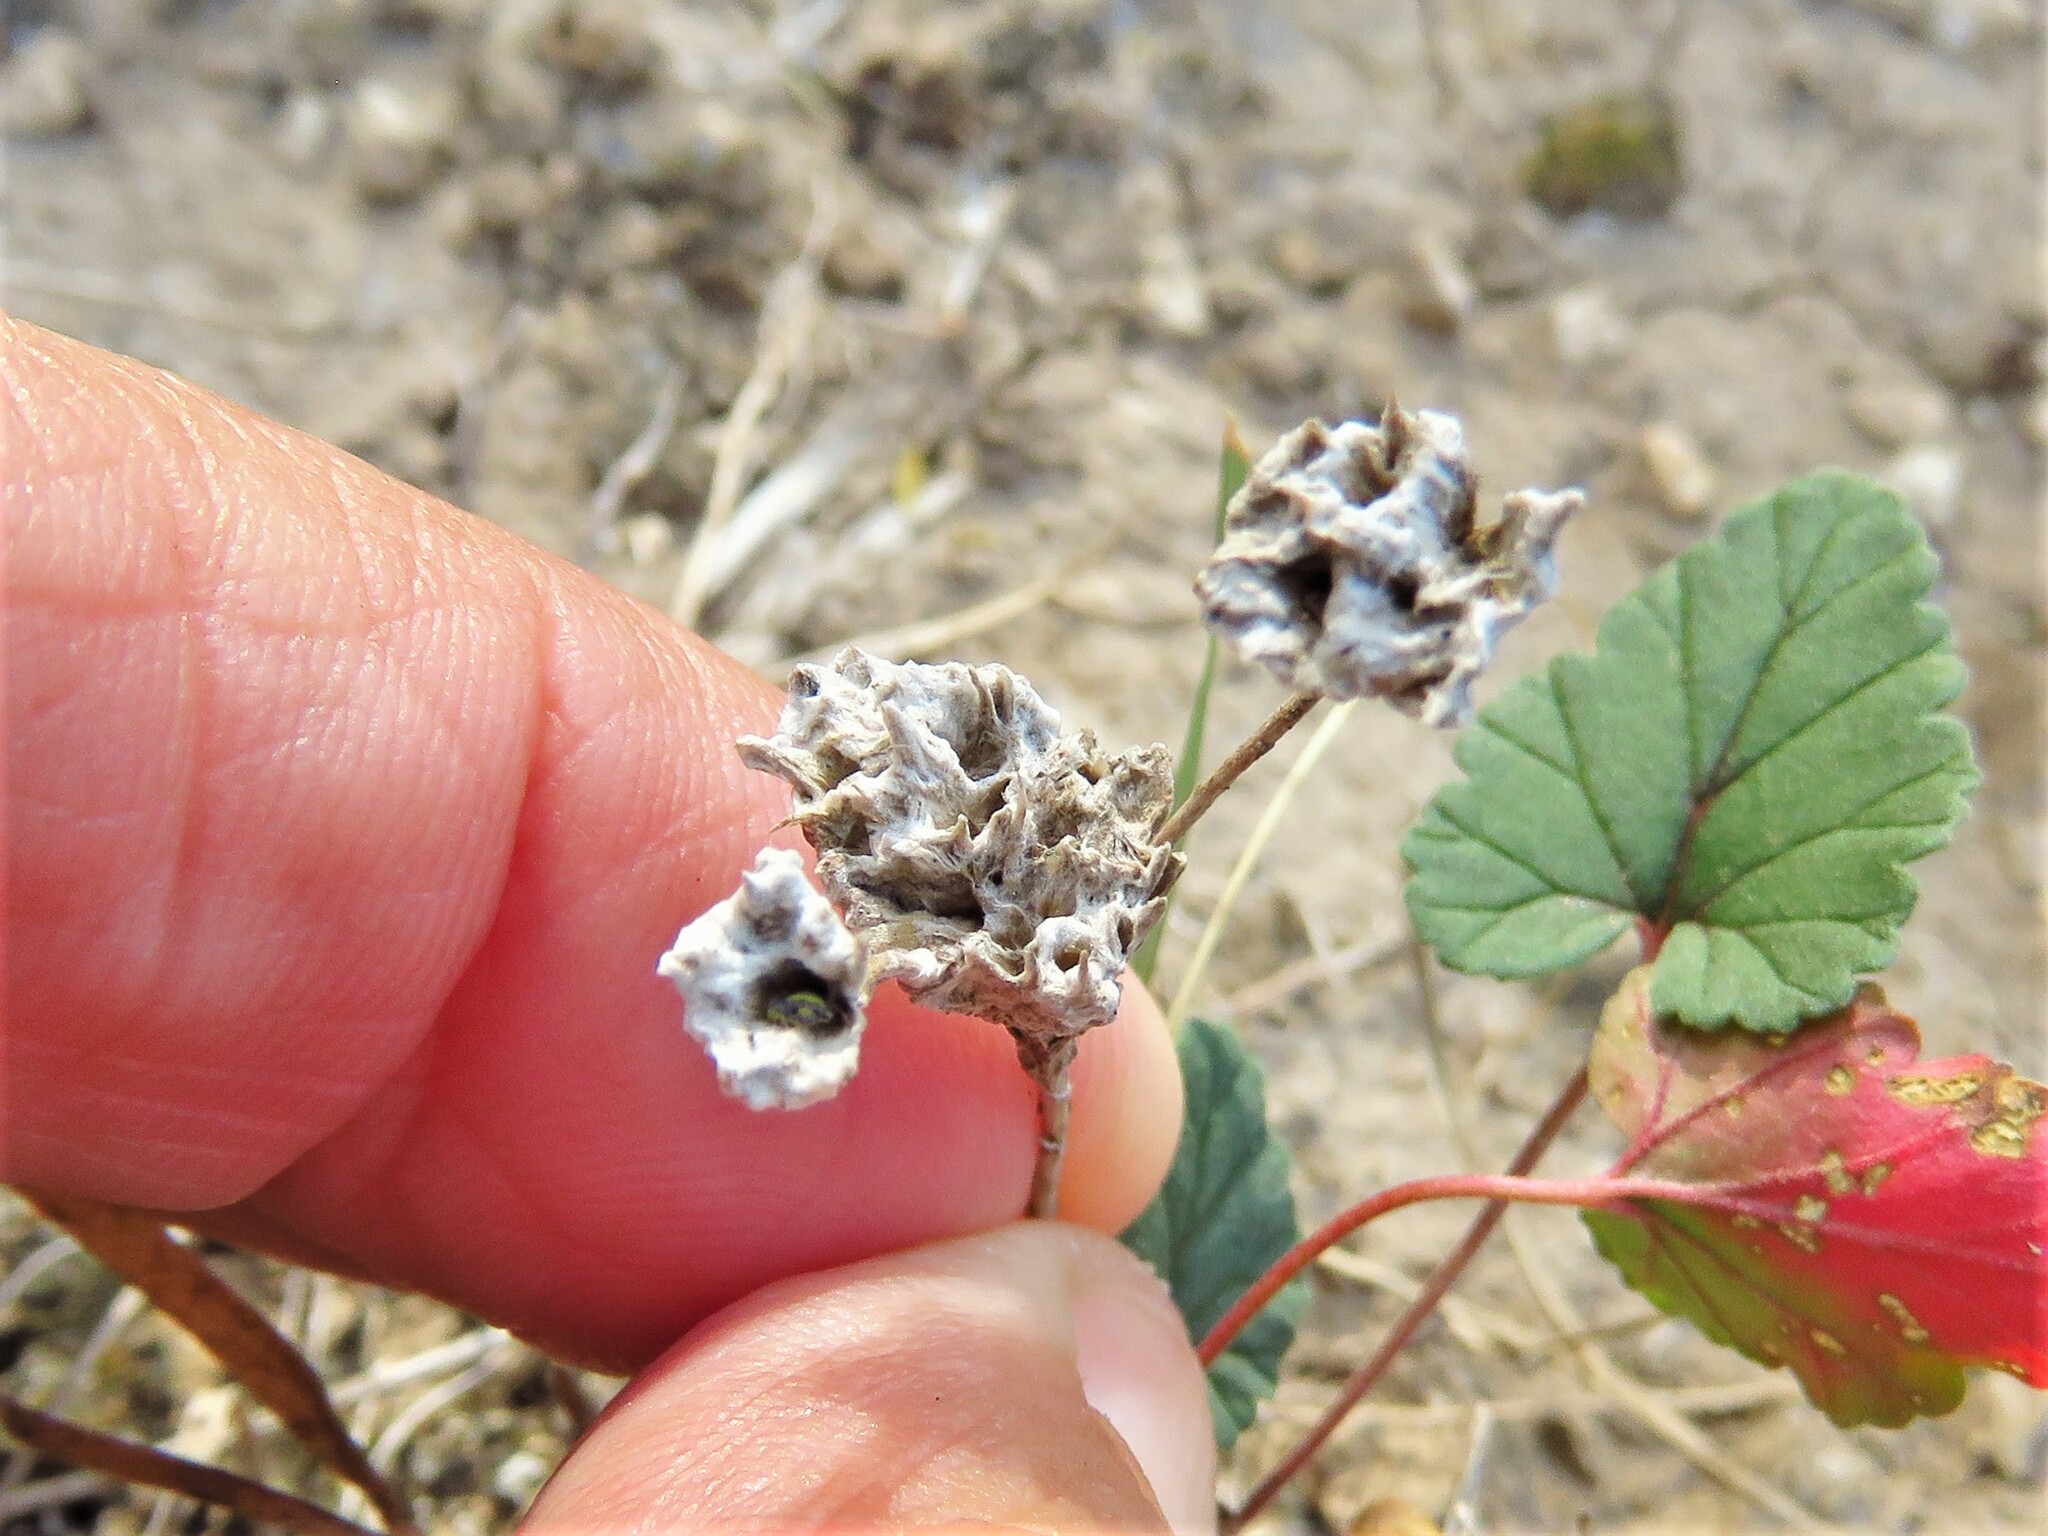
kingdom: Plantae
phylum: Tracheophyta
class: Magnoliopsida
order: Asterales
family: Asteraceae
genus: Diaperia
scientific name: Diaperia prolifera
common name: Big-head rabbit-tobacco
